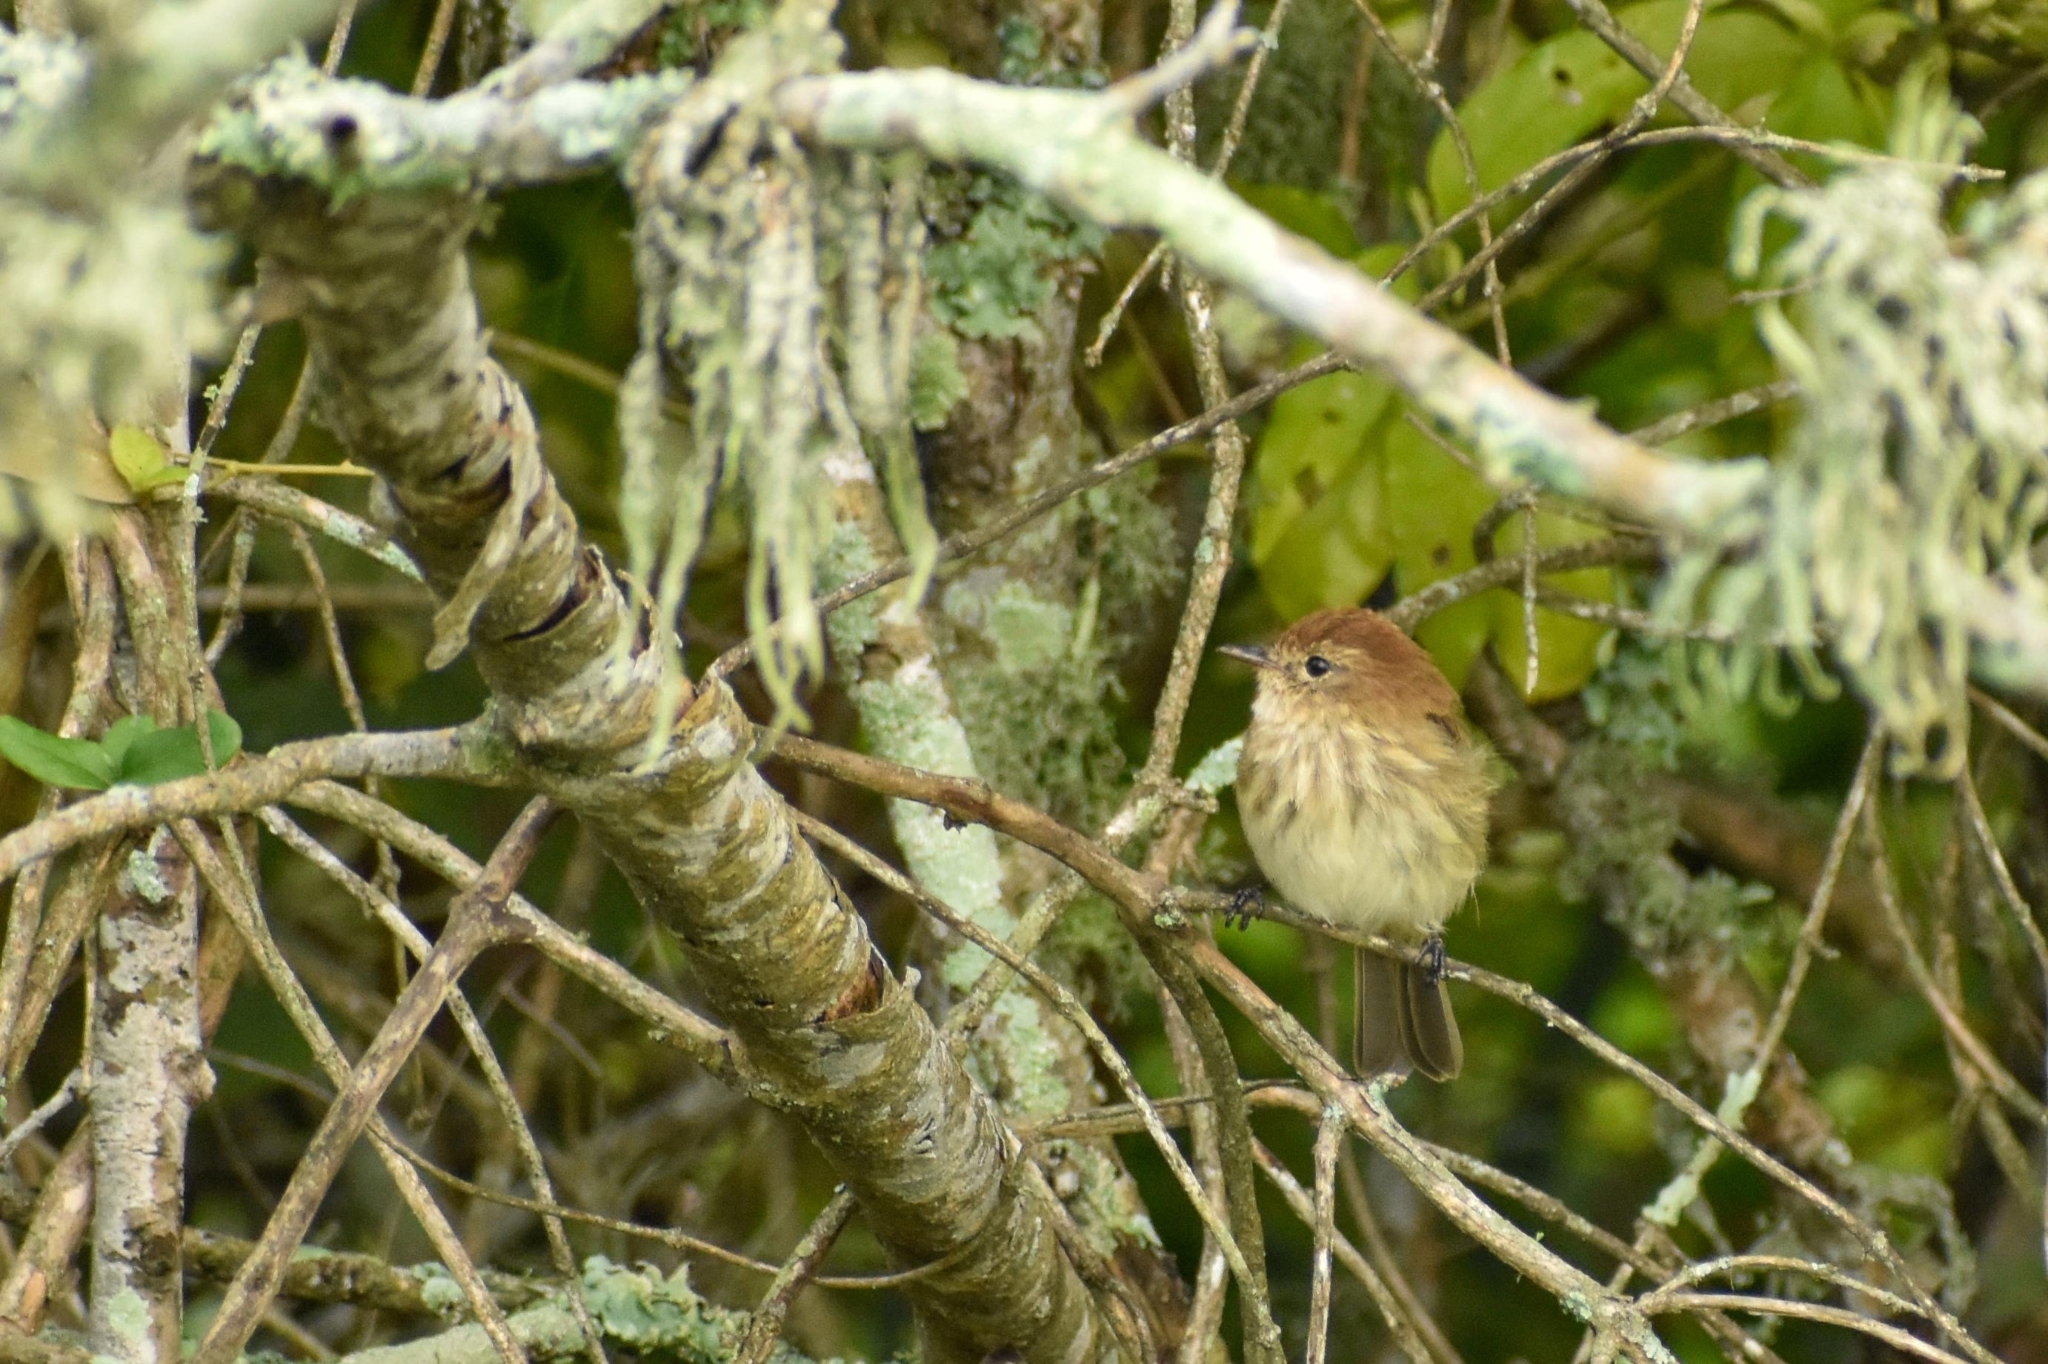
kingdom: Animalia
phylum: Chordata
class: Aves
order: Passeriformes
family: Tyrannidae
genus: Myiophobus
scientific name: Myiophobus fasciatus
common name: Bran-colored flycatcher
